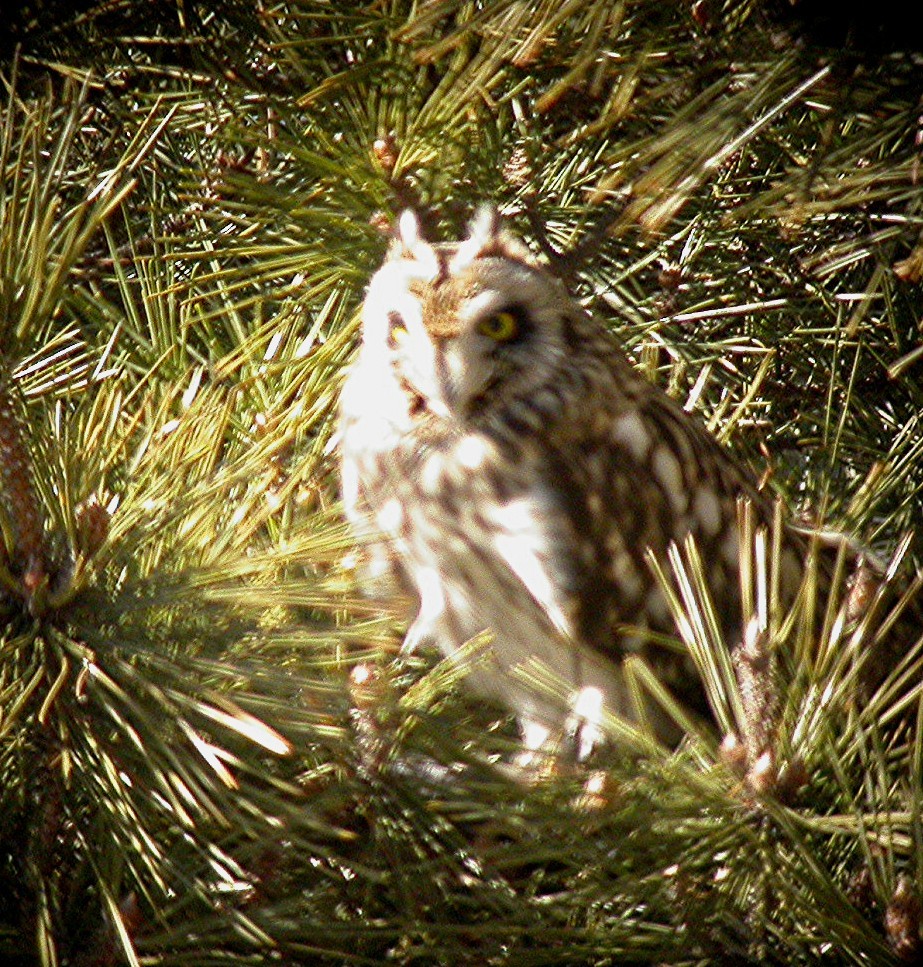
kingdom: Animalia
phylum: Chordata
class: Aves
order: Strigiformes
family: Strigidae
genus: Asio
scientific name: Asio flammeus
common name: Short-eared owl
